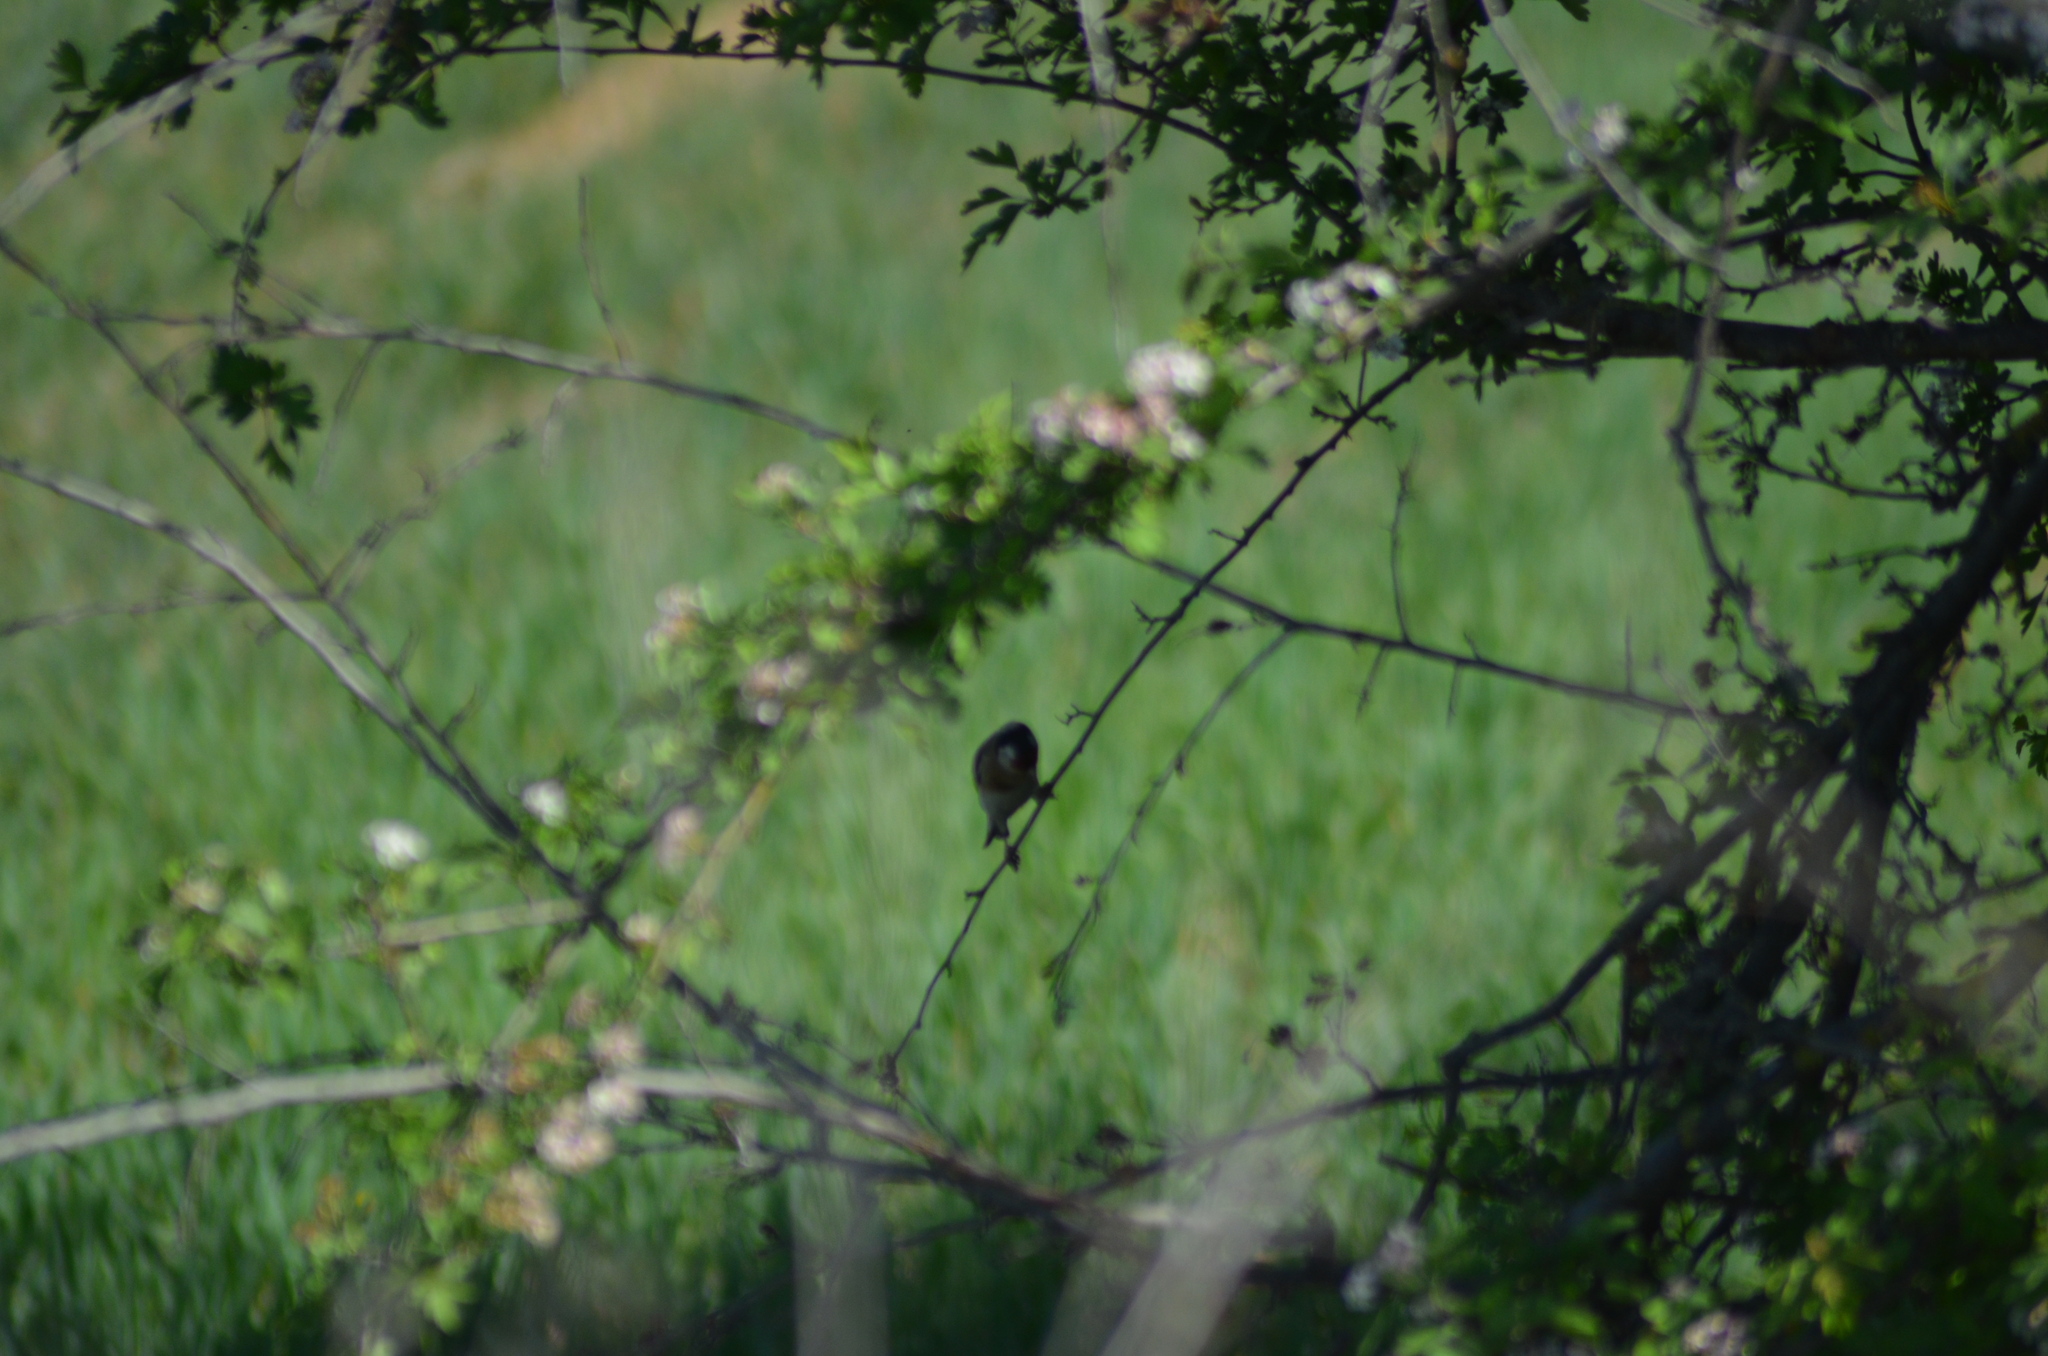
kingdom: Animalia
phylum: Chordata
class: Aves
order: Passeriformes
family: Fringillidae
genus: Carduelis
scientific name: Carduelis carduelis
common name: European goldfinch
